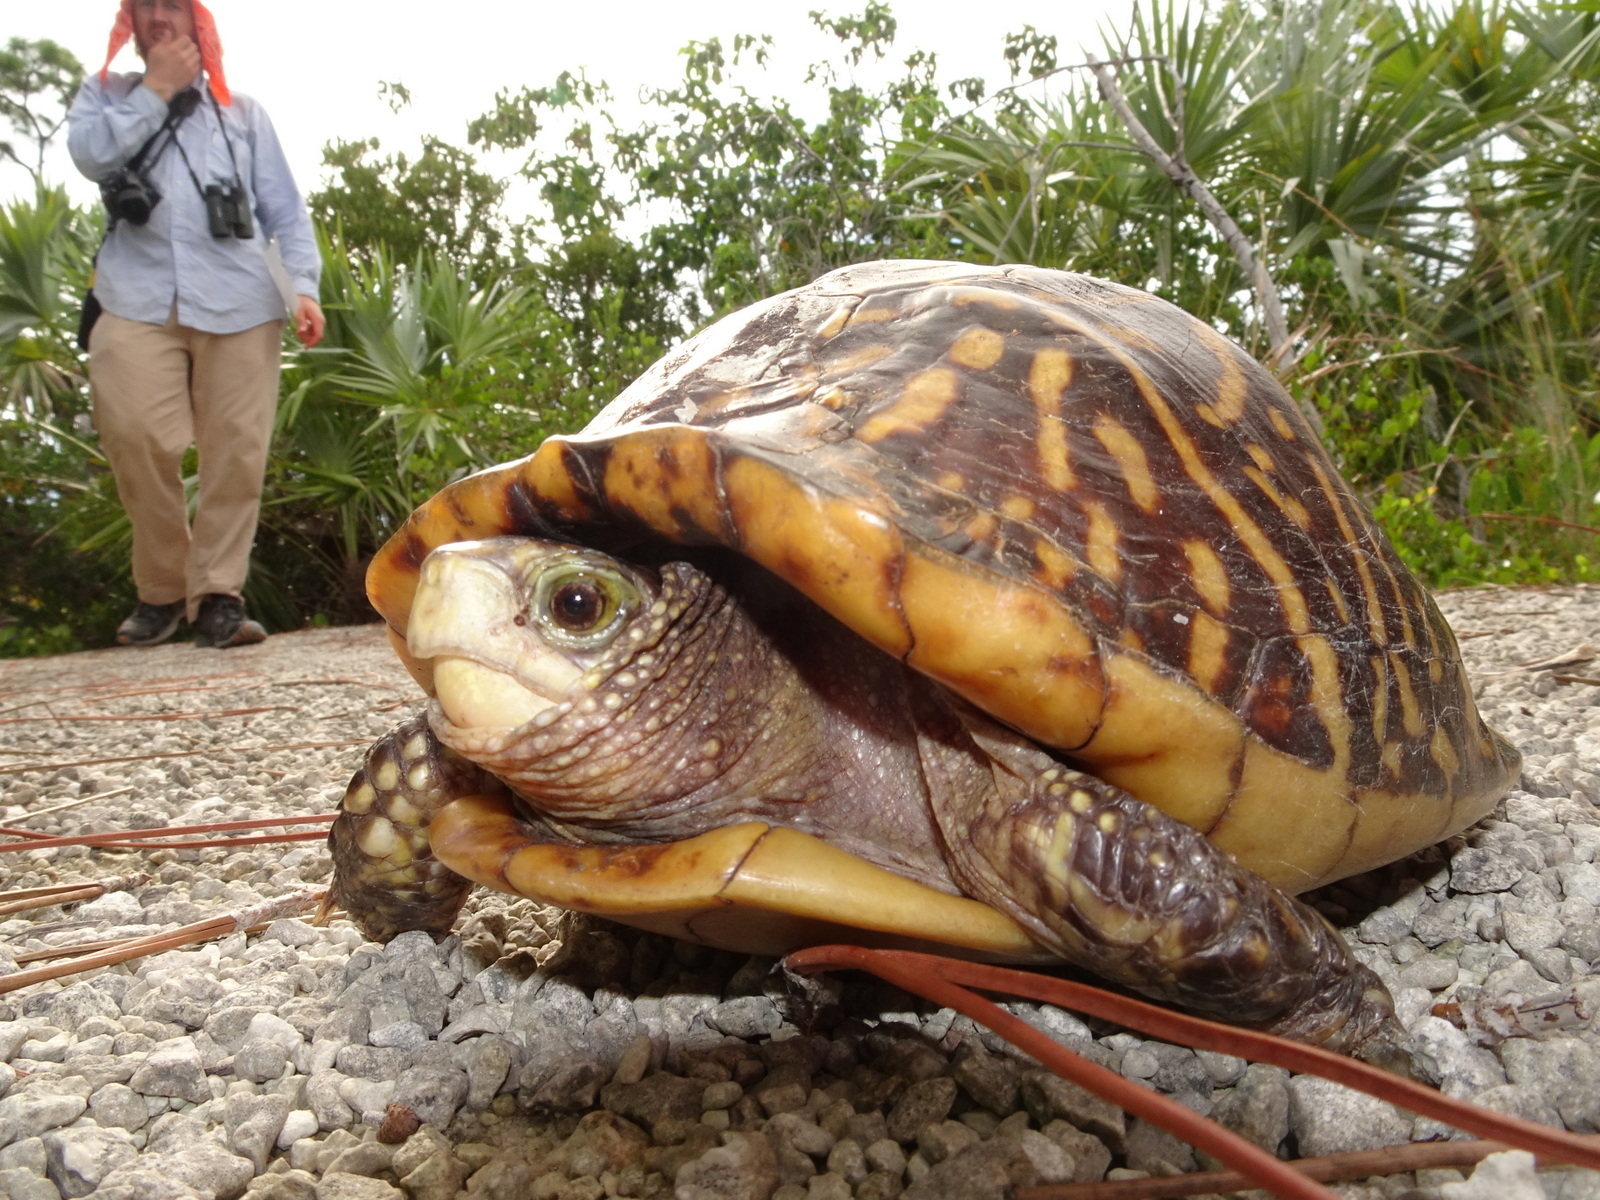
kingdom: Animalia
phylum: Chordata
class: Testudines
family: Emydidae
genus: Terrapene
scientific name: Terrapene carolina
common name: Common box turtle
